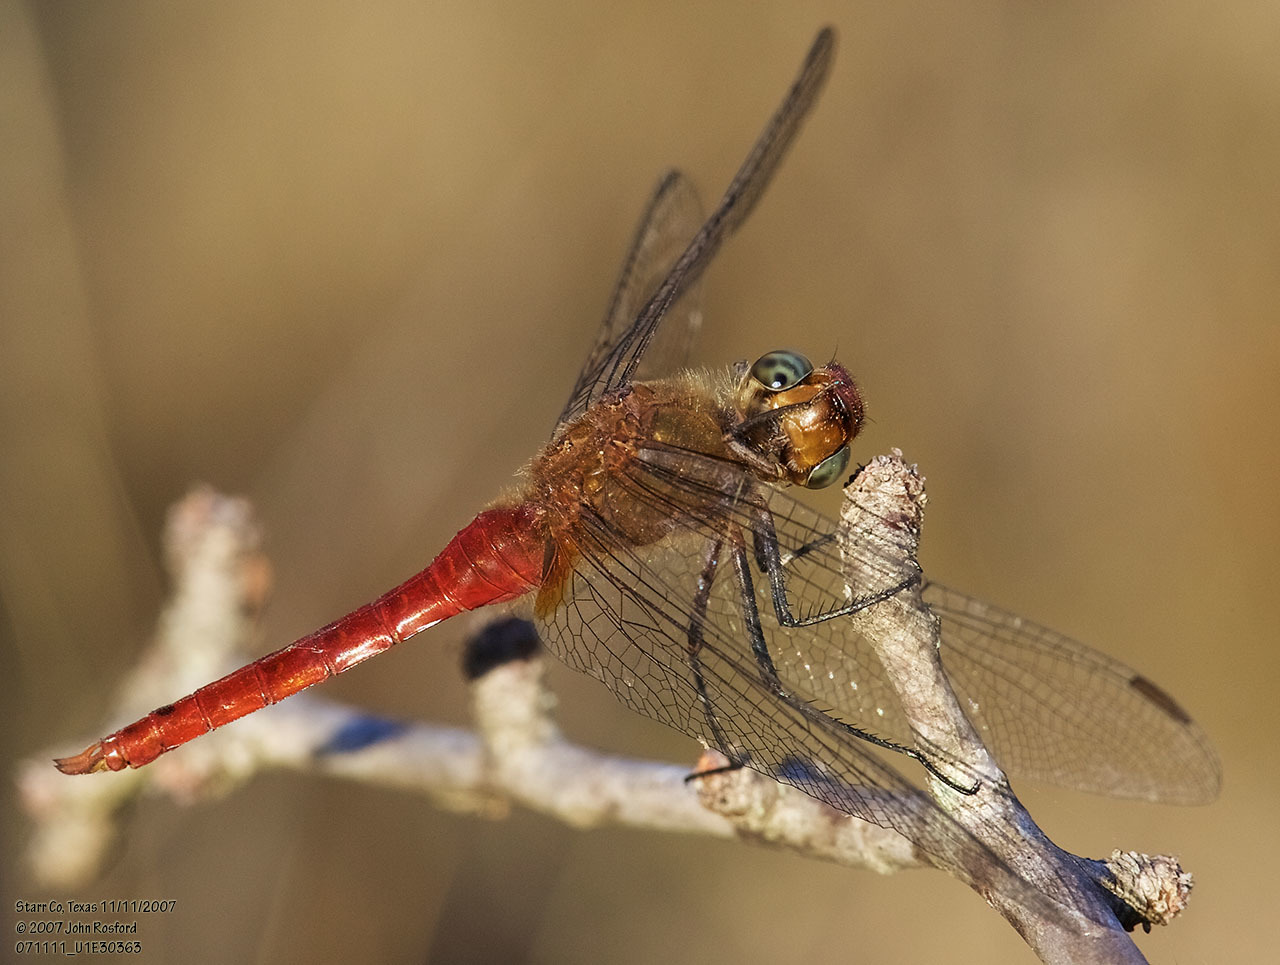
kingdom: Animalia
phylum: Arthropoda
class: Insecta
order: Odonata
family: Libellulidae
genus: Brachymesia
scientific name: Brachymesia furcata
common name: Red-taled pennant
